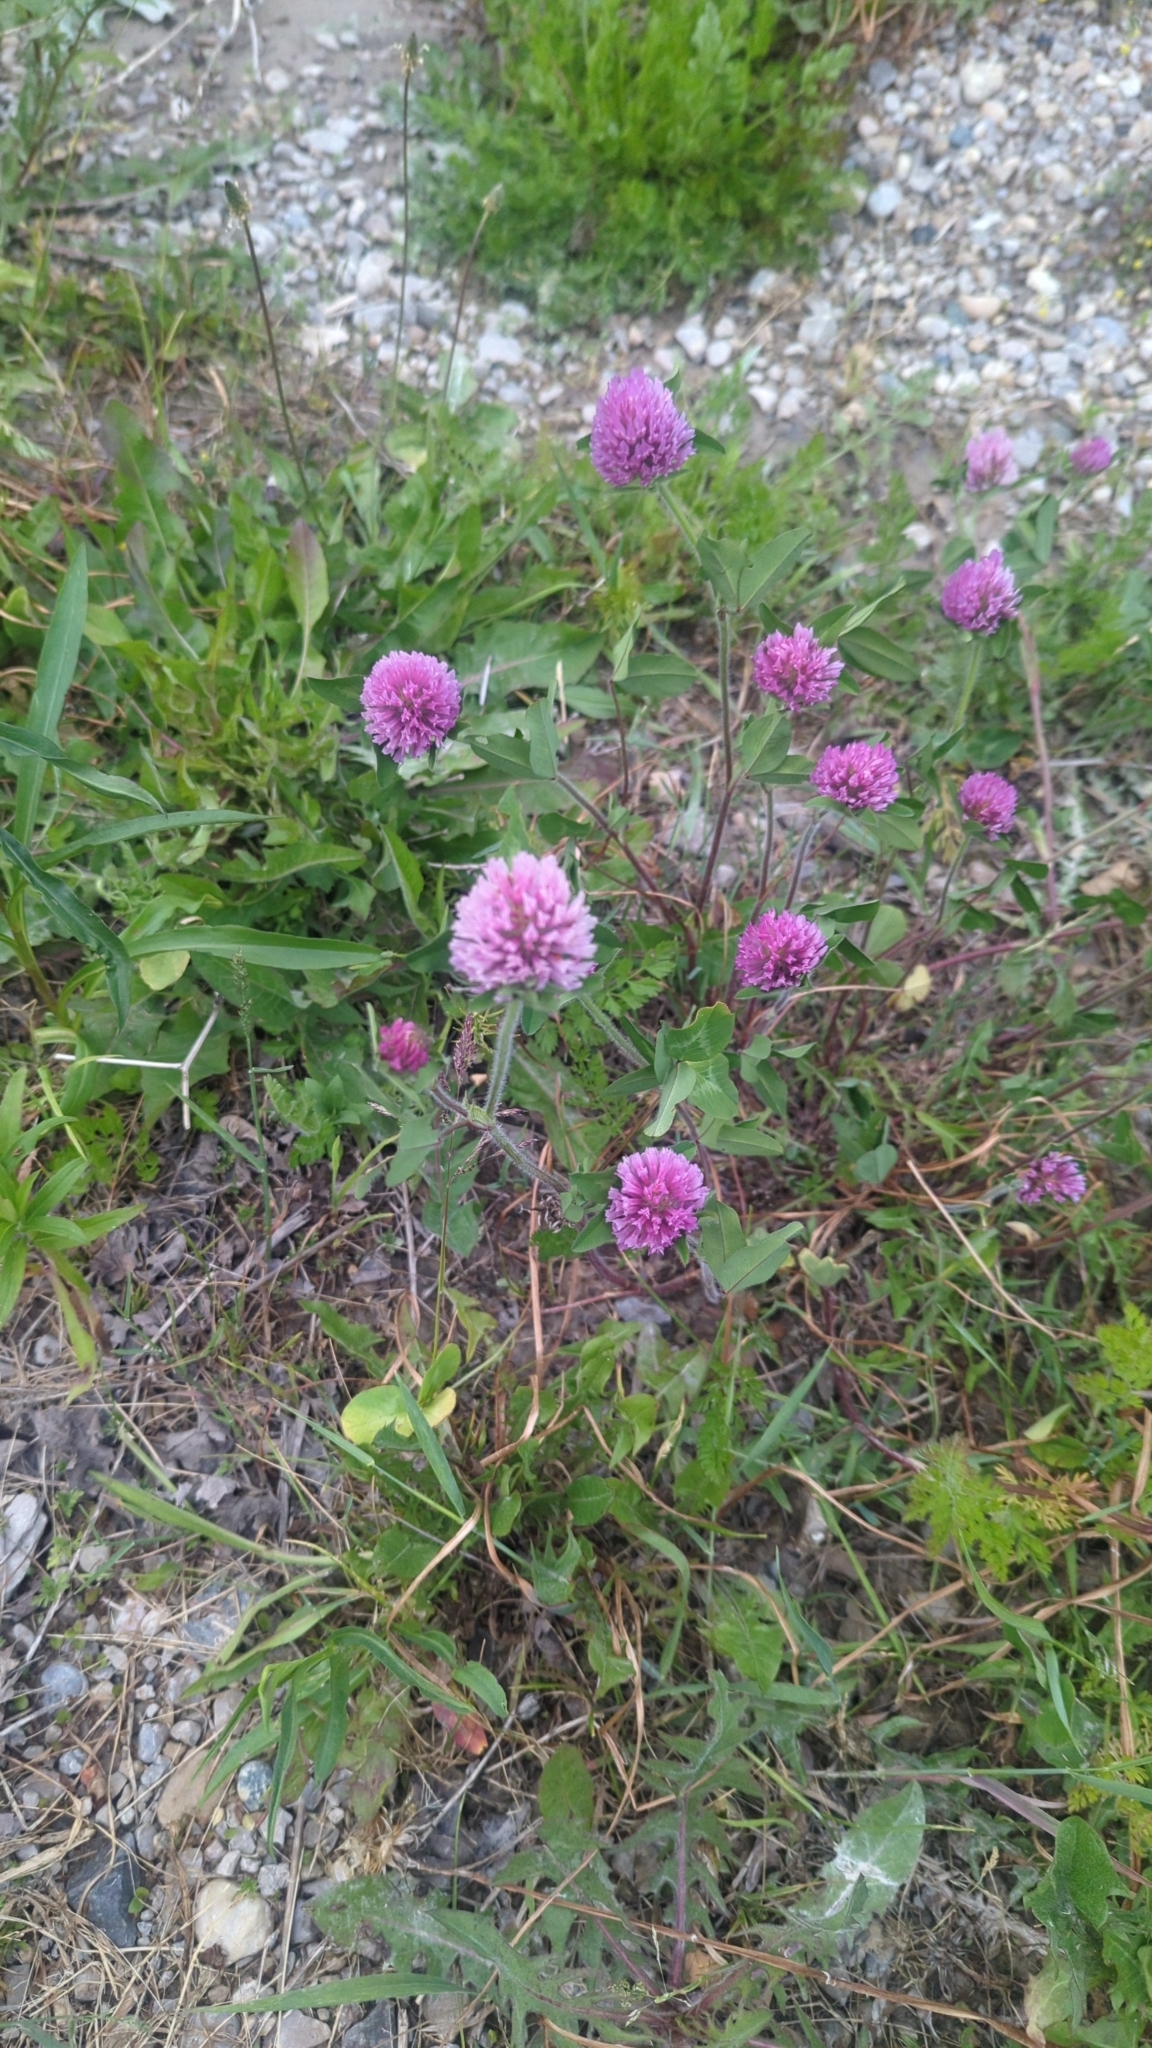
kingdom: Plantae
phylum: Tracheophyta
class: Magnoliopsida
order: Fabales
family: Fabaceae
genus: Trifolium
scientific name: Trifolium pratense
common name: Red clover
